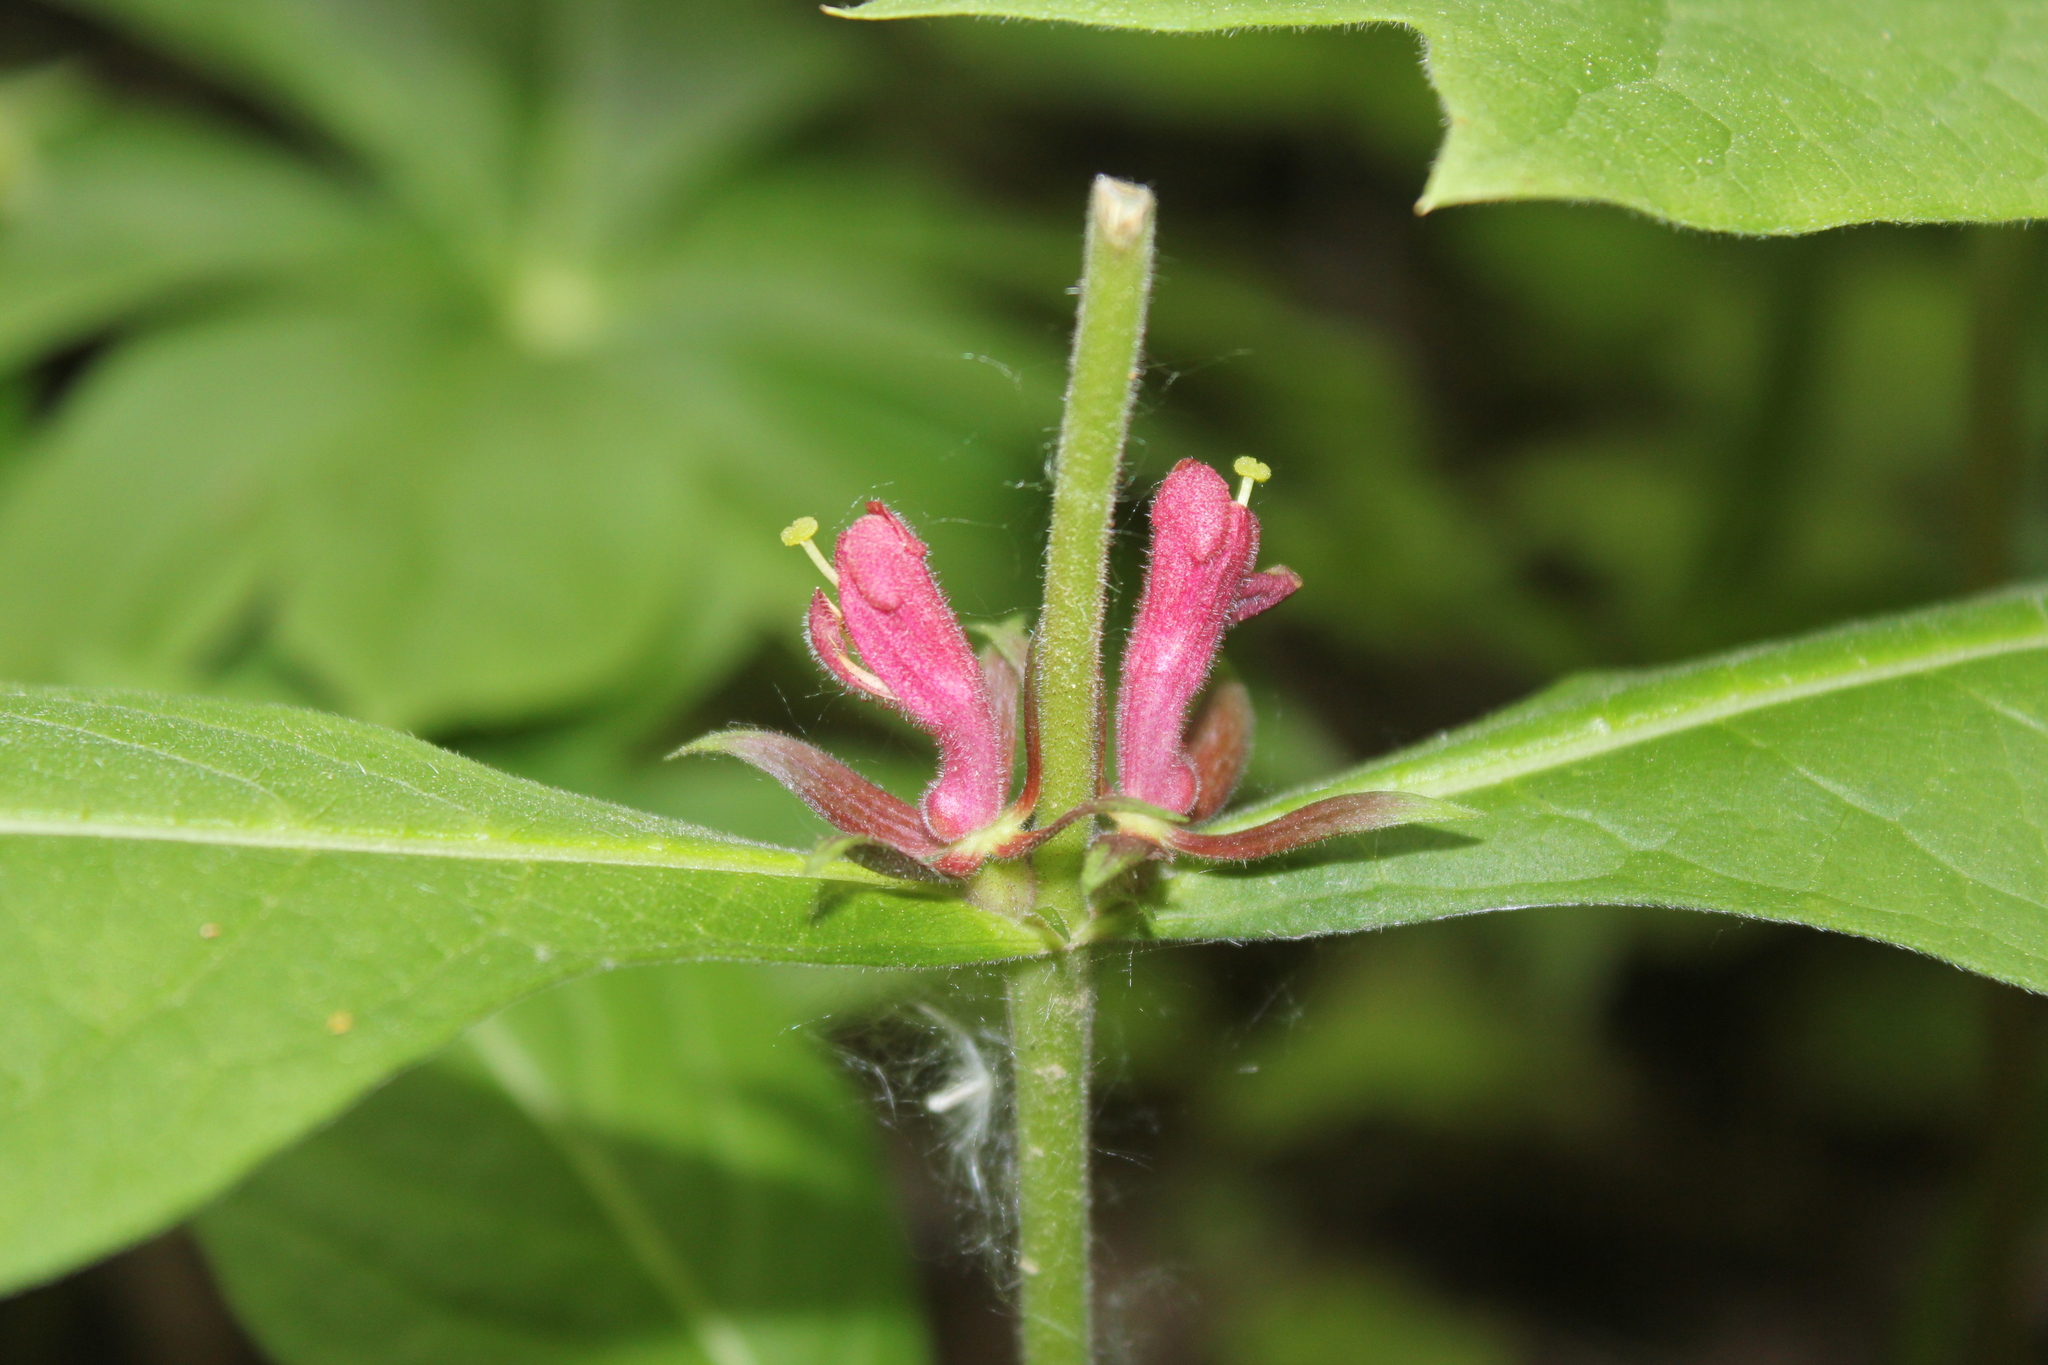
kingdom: Plantae
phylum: Tracheophyta
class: Magnoliopsida
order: Dipsacales
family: Caprifoliaceae
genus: Triosteum
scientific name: Triosteum aurantiacum
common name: Coffee tinker's-weed
